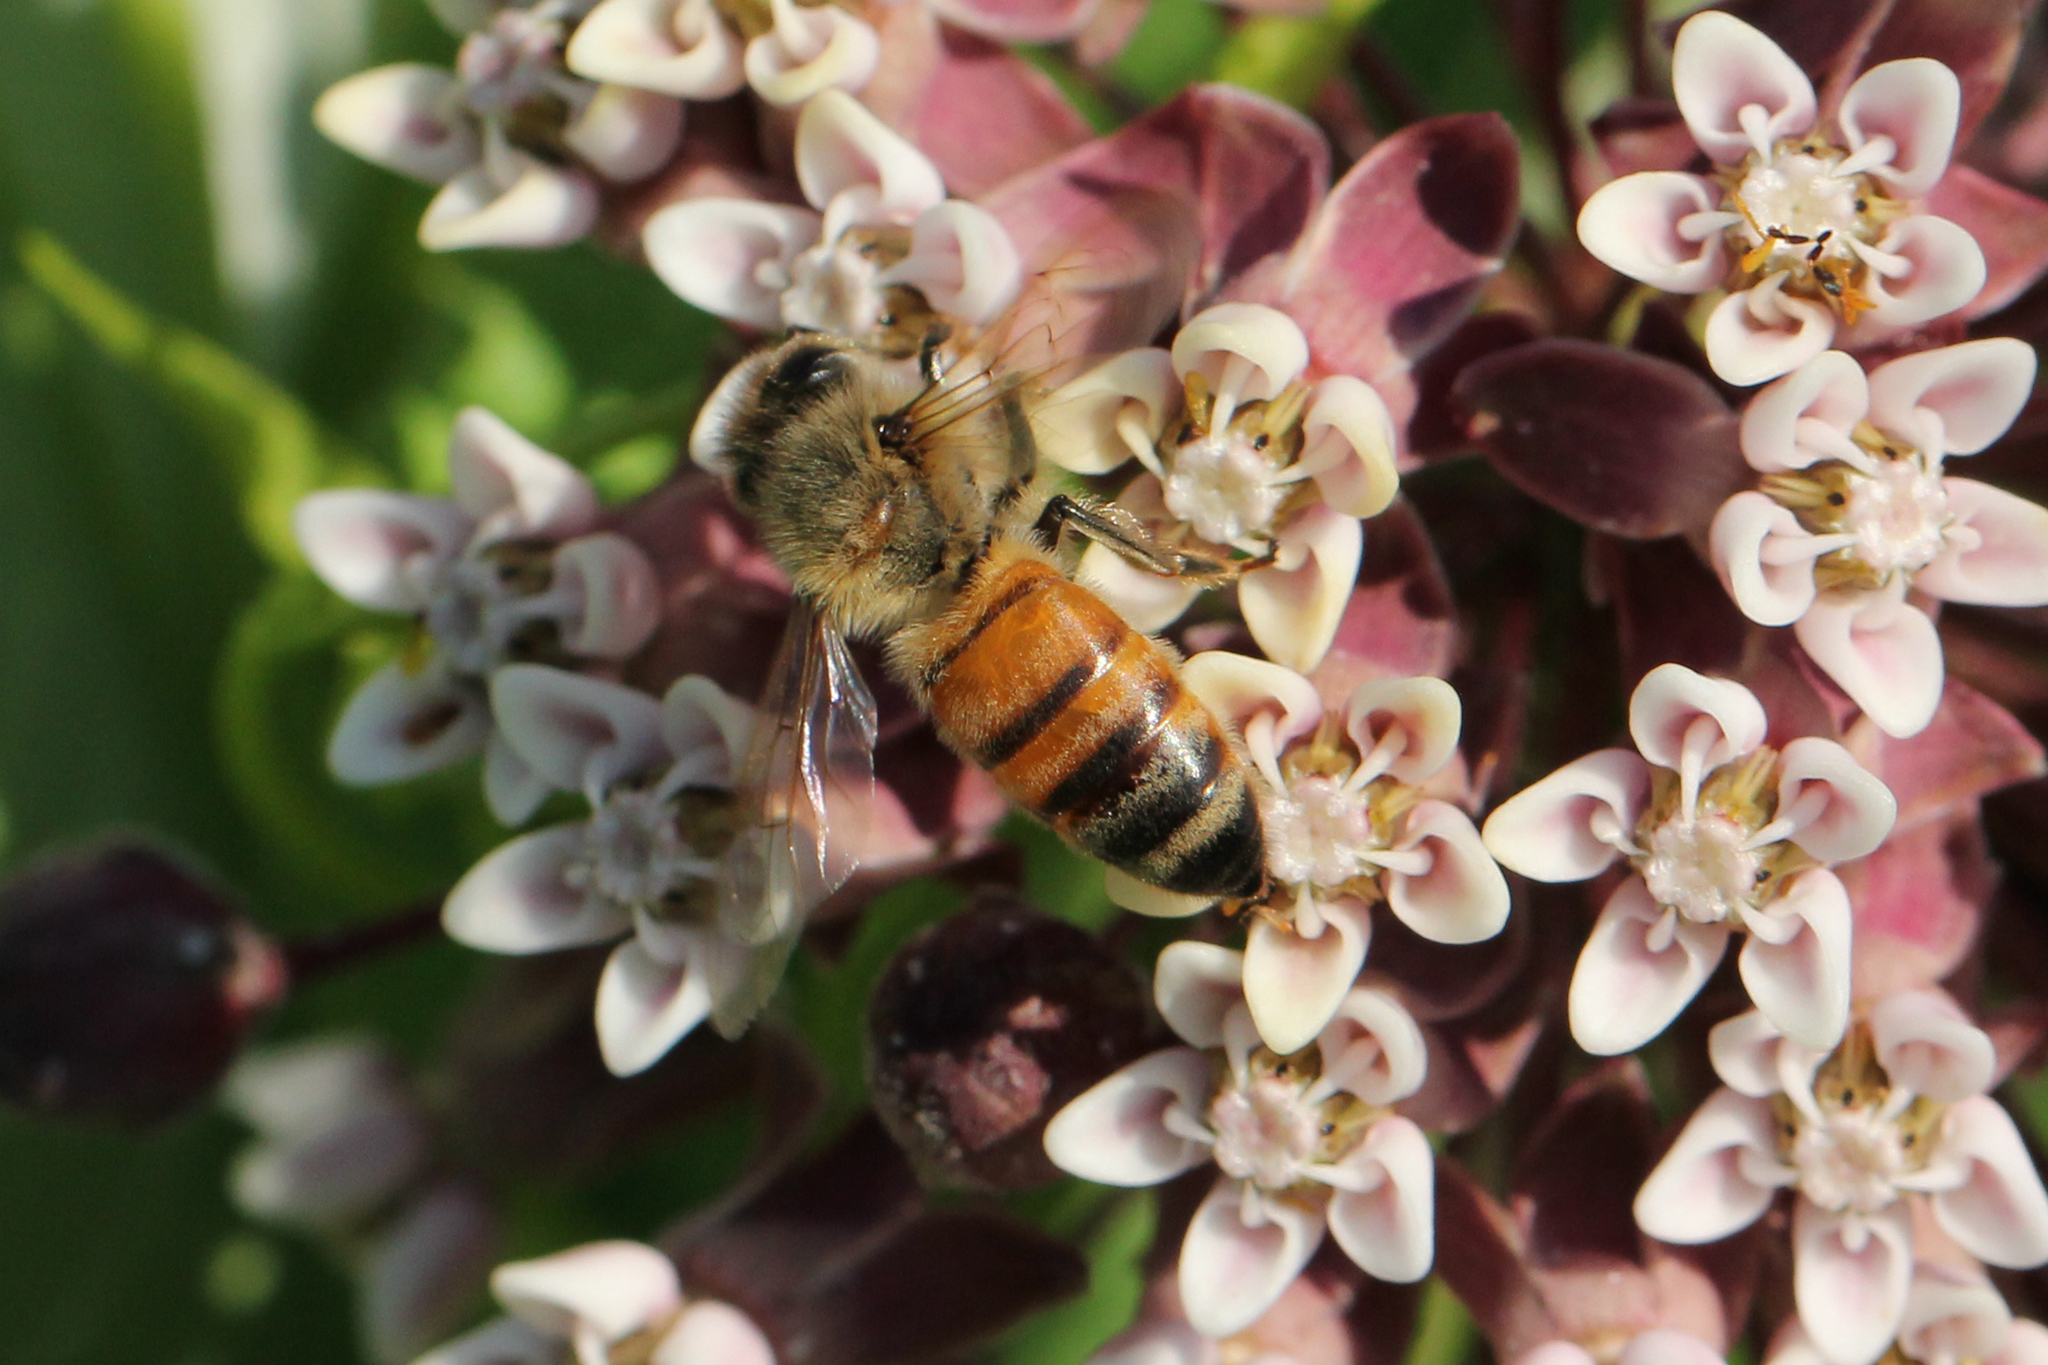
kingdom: Animalia
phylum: Arthropoda
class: Insecta
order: Hymenoptera
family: Apidae
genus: Apis
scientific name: Apis mellifera
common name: Honey bee
